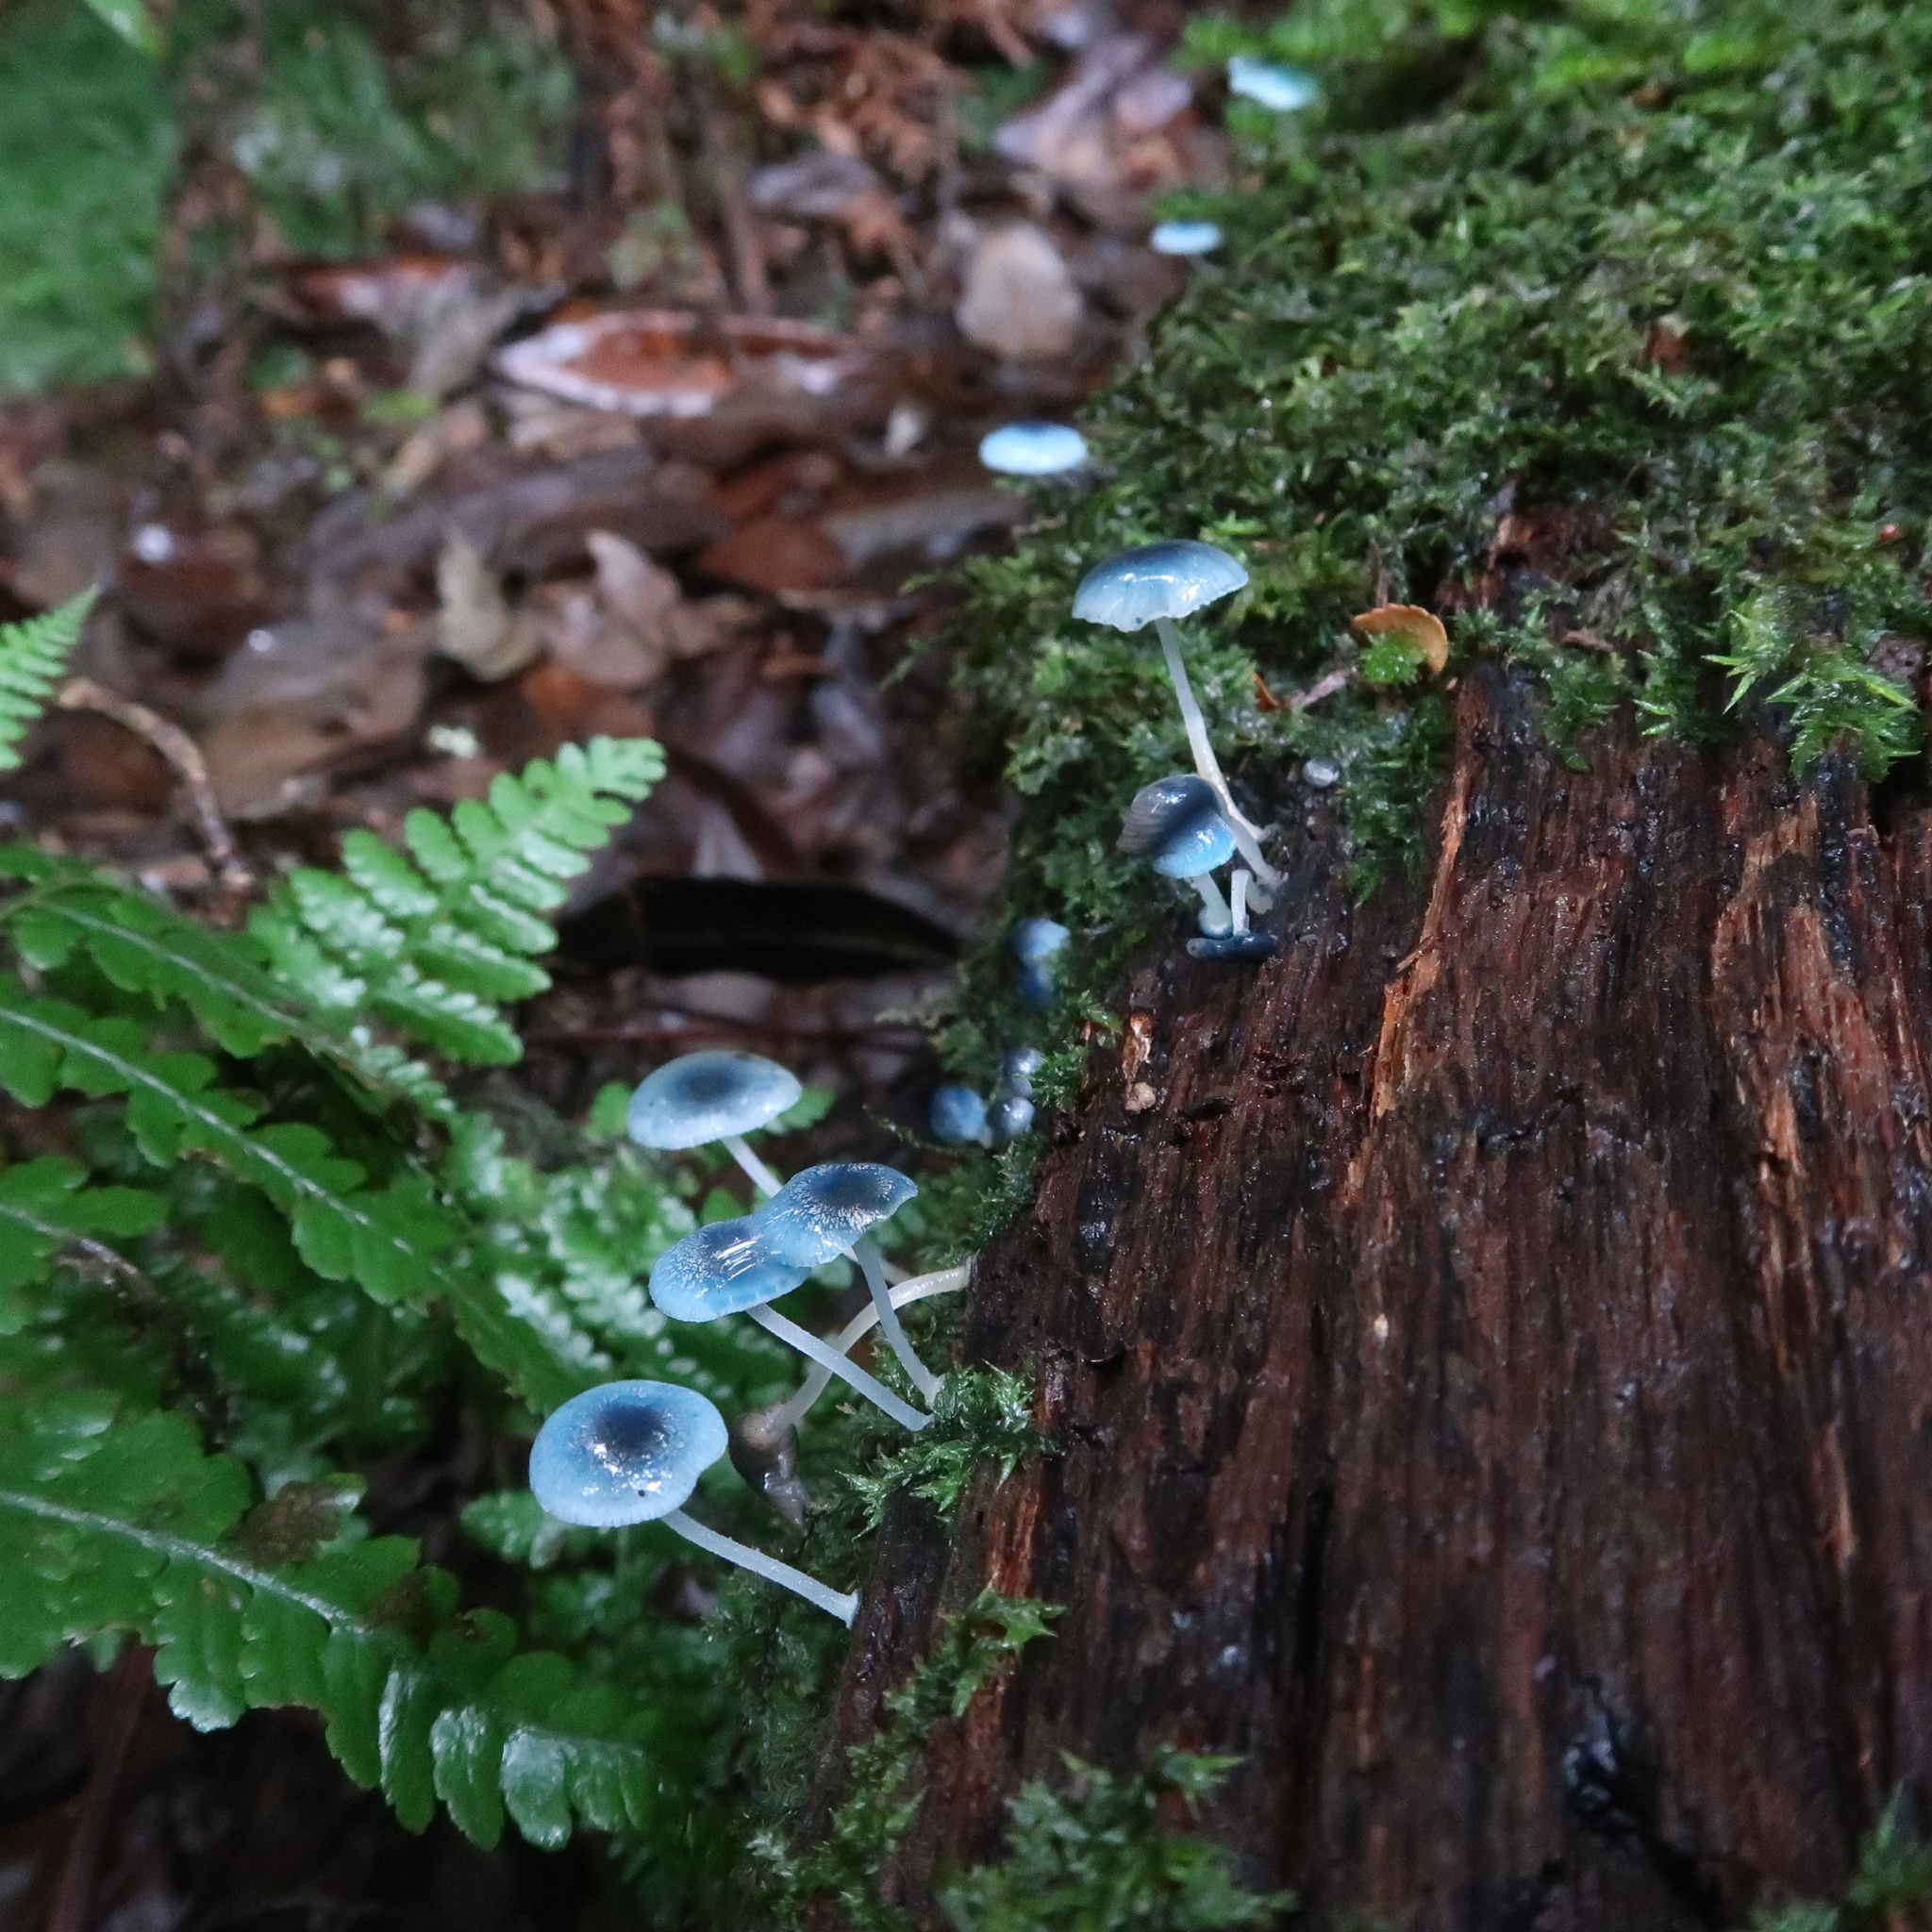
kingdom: Fungi
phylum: Basidiomycota
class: Agaricomycetes
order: Agaricales
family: Mycenaceae
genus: Mycena
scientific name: Mycena interrupta
